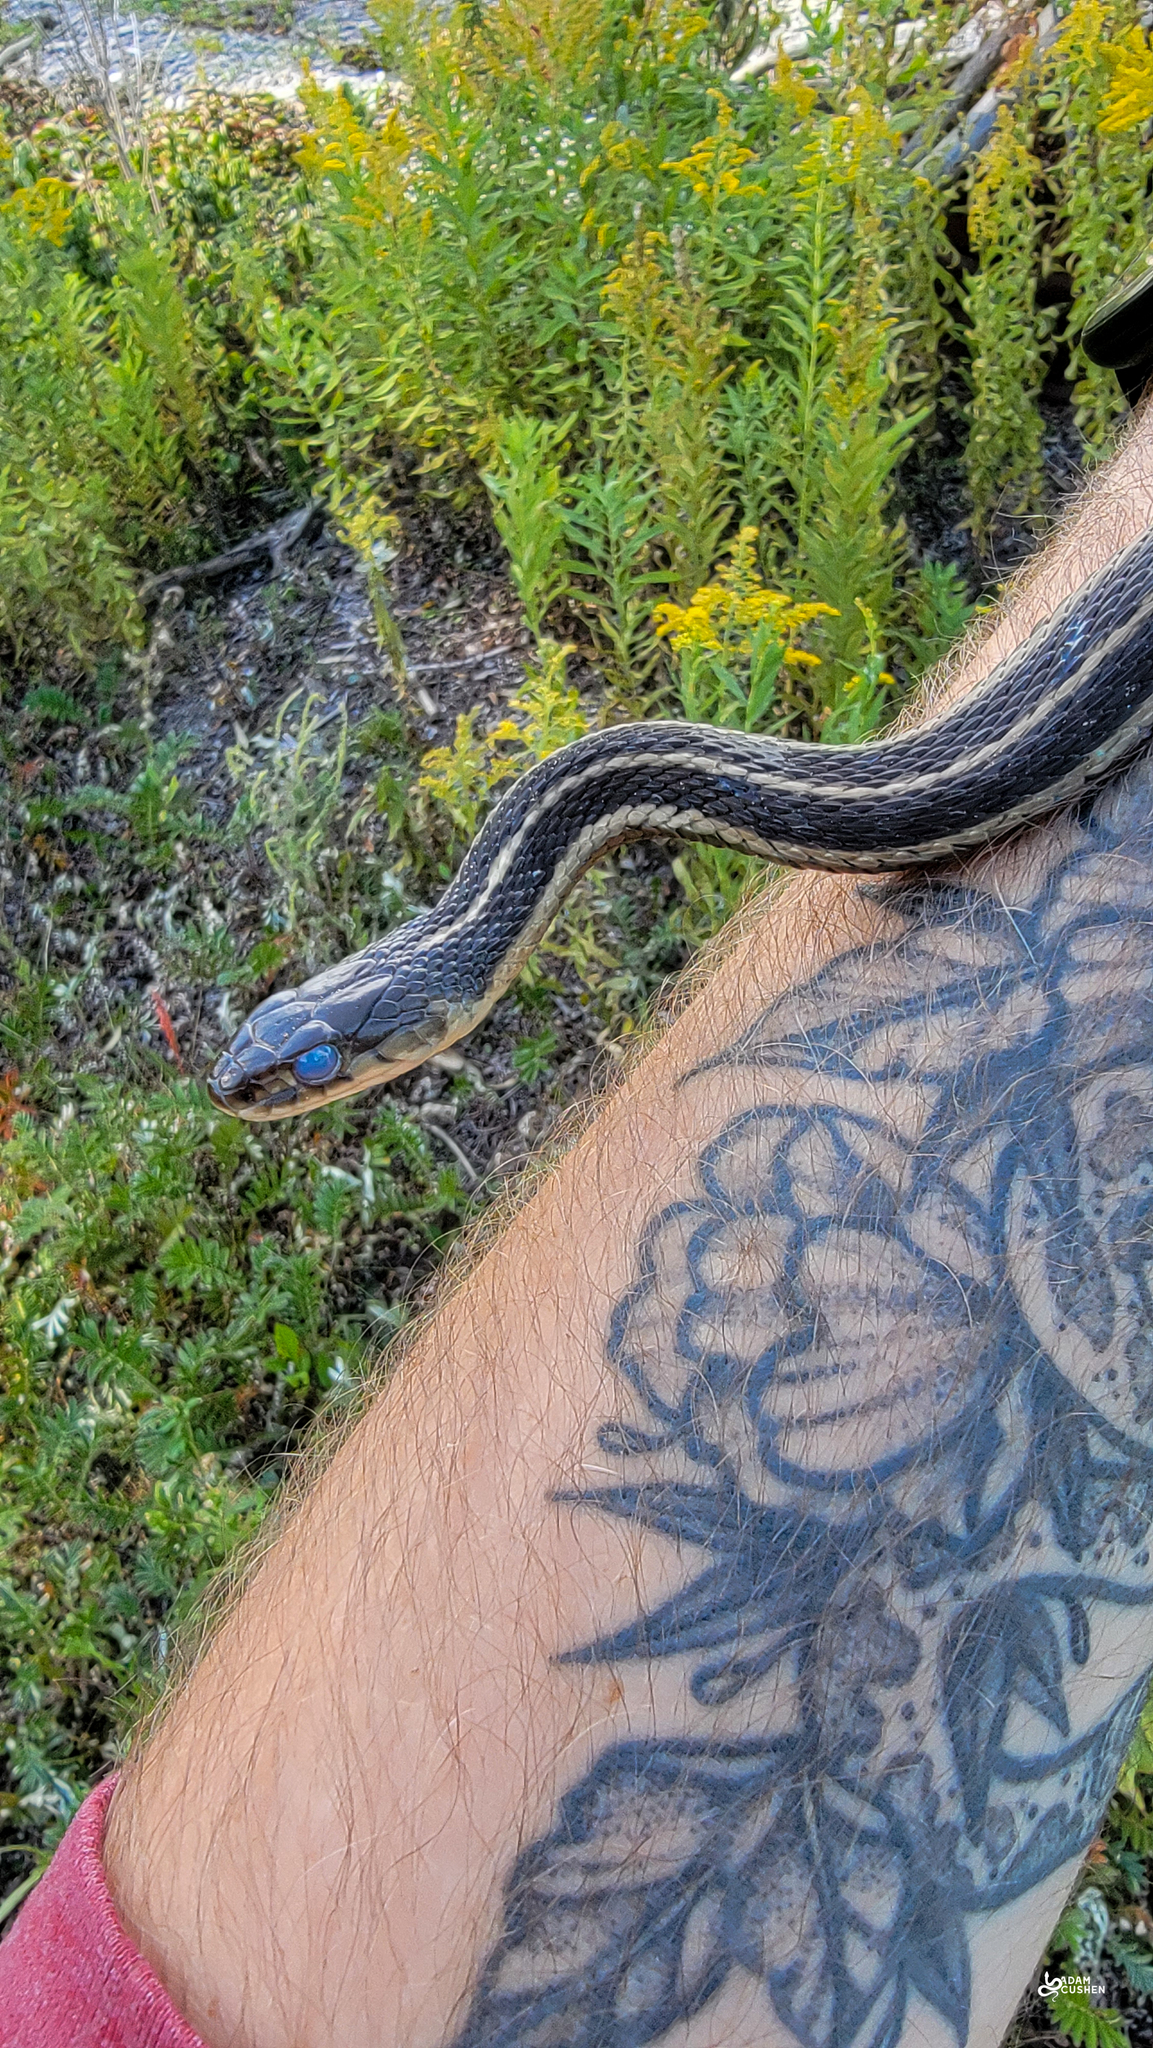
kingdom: Animalia
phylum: Chordata
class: Squamata
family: Colubridae
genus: Thamnophis
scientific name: Thamnophis sirtalis
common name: Common garter snake
